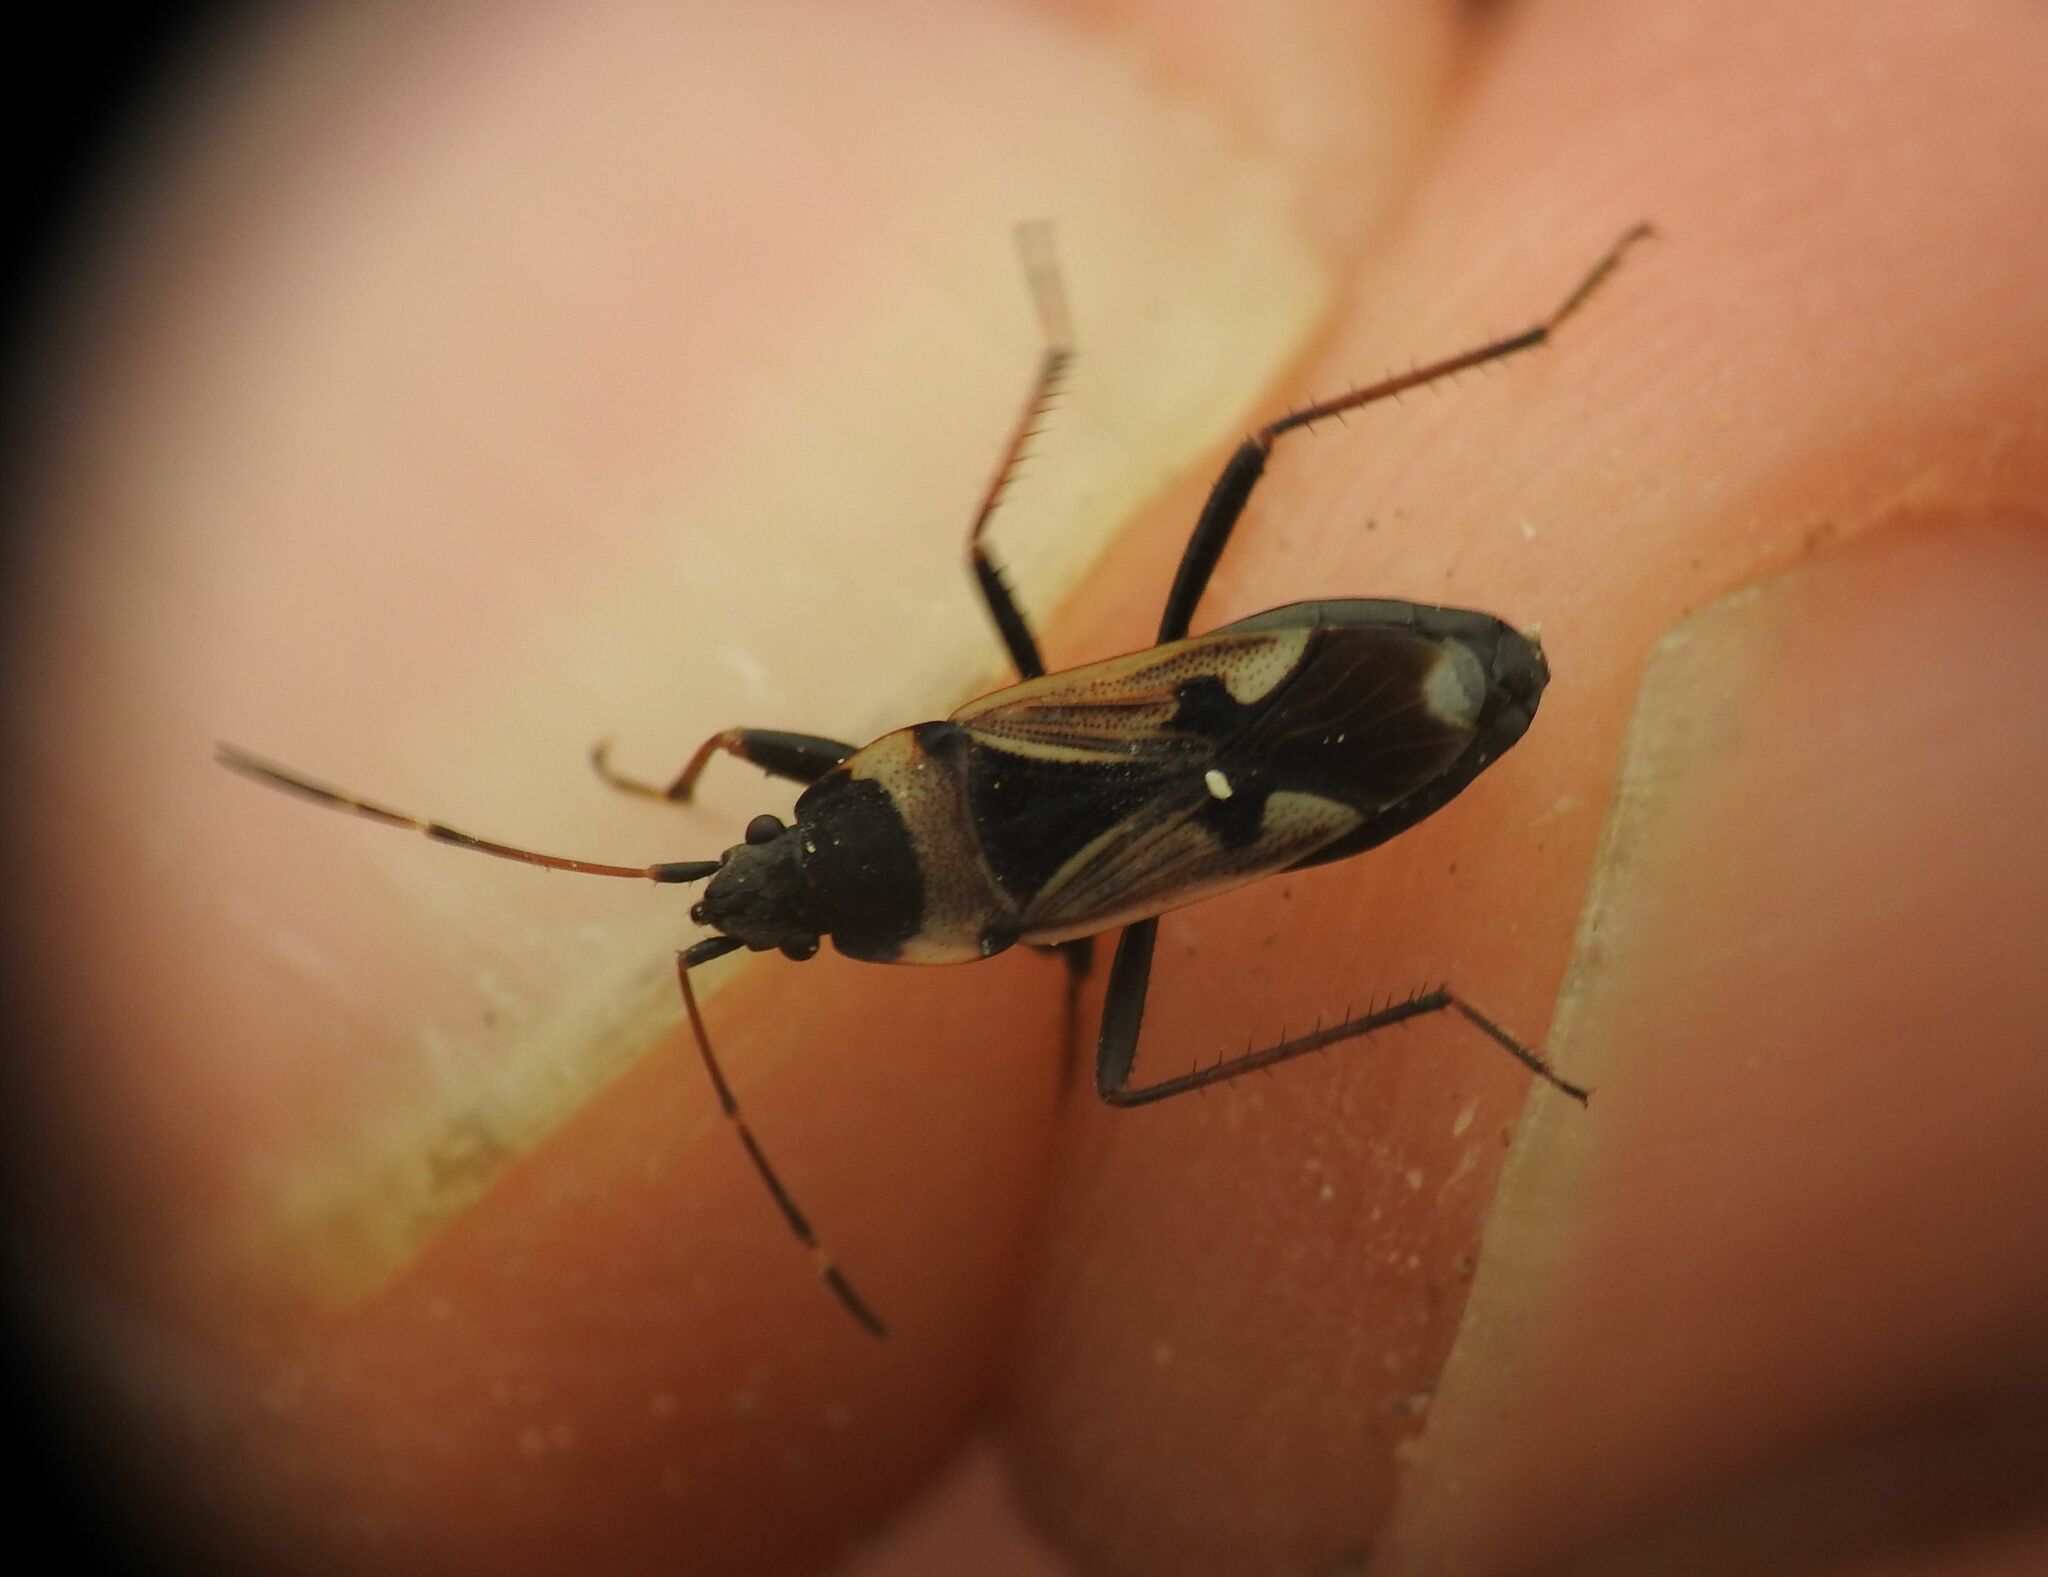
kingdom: Animalia
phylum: Arthropoda
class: Insecta
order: Hemiptera
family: Rhyparochromidae
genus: Raglius
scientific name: Raglius confusus
